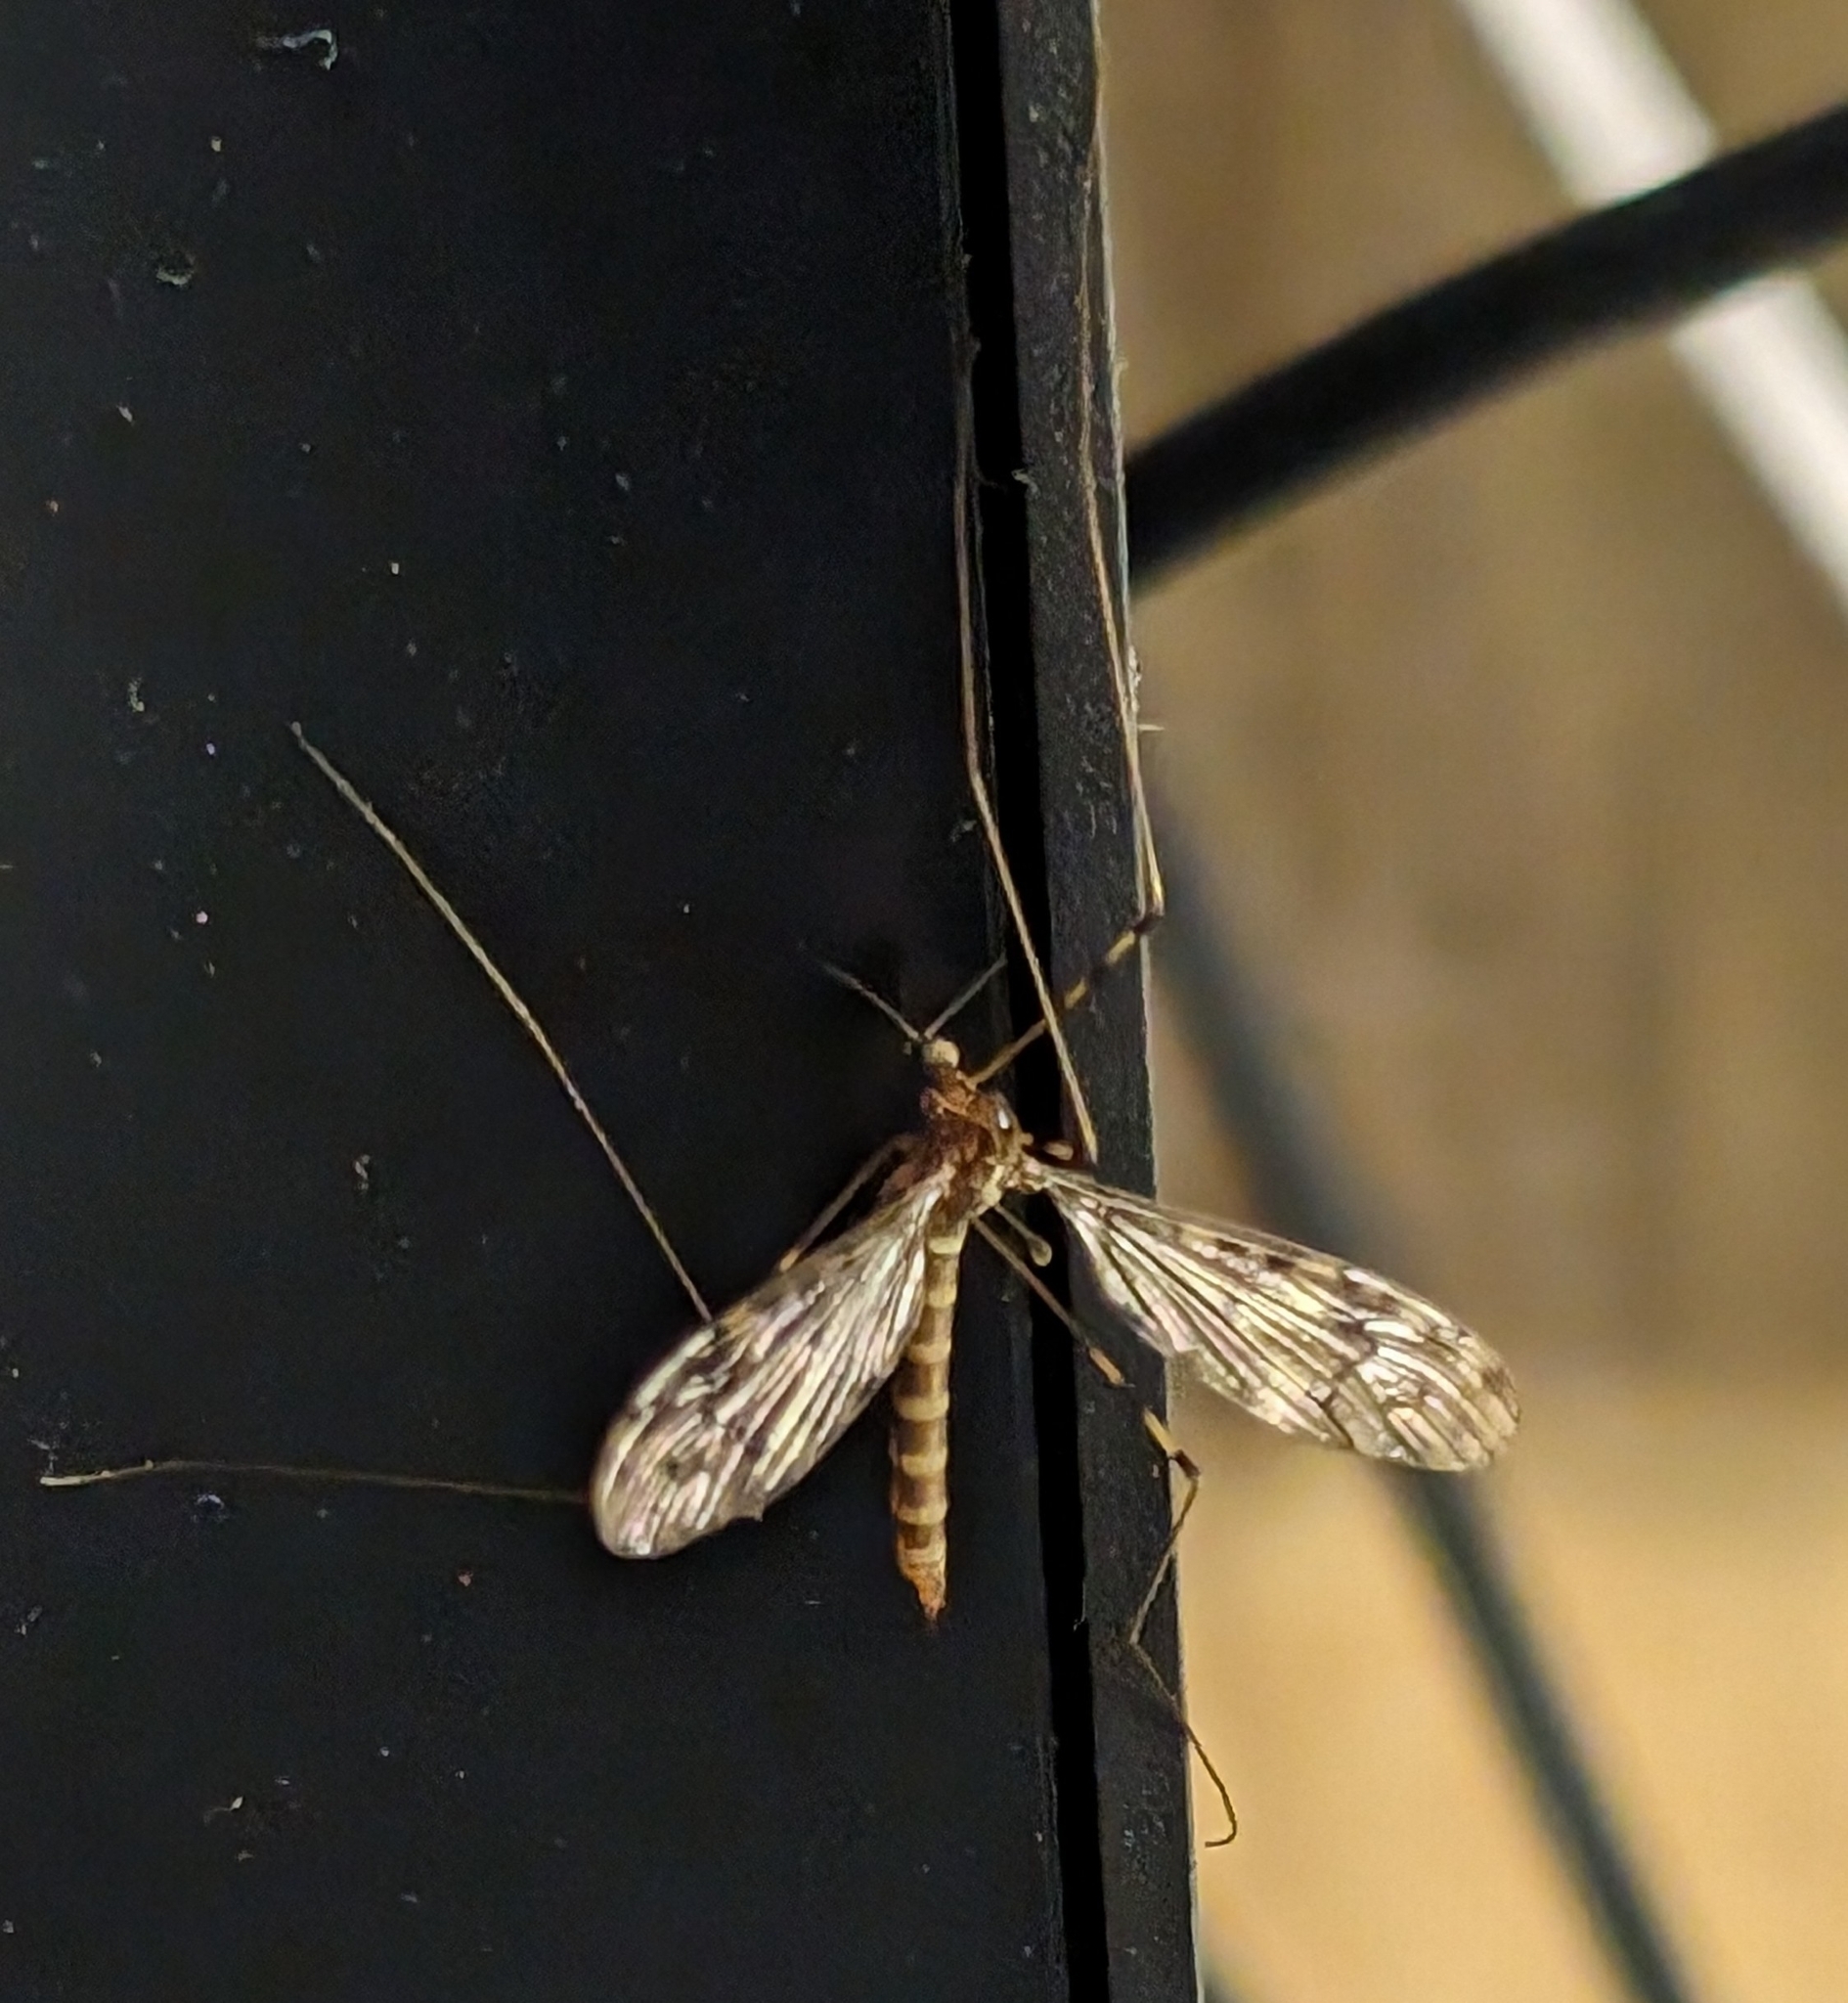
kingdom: Animalia
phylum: Arthropoda
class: Insecta
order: Diptera
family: Limoniidae
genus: Limonia
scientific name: Limonia nubeculosa
